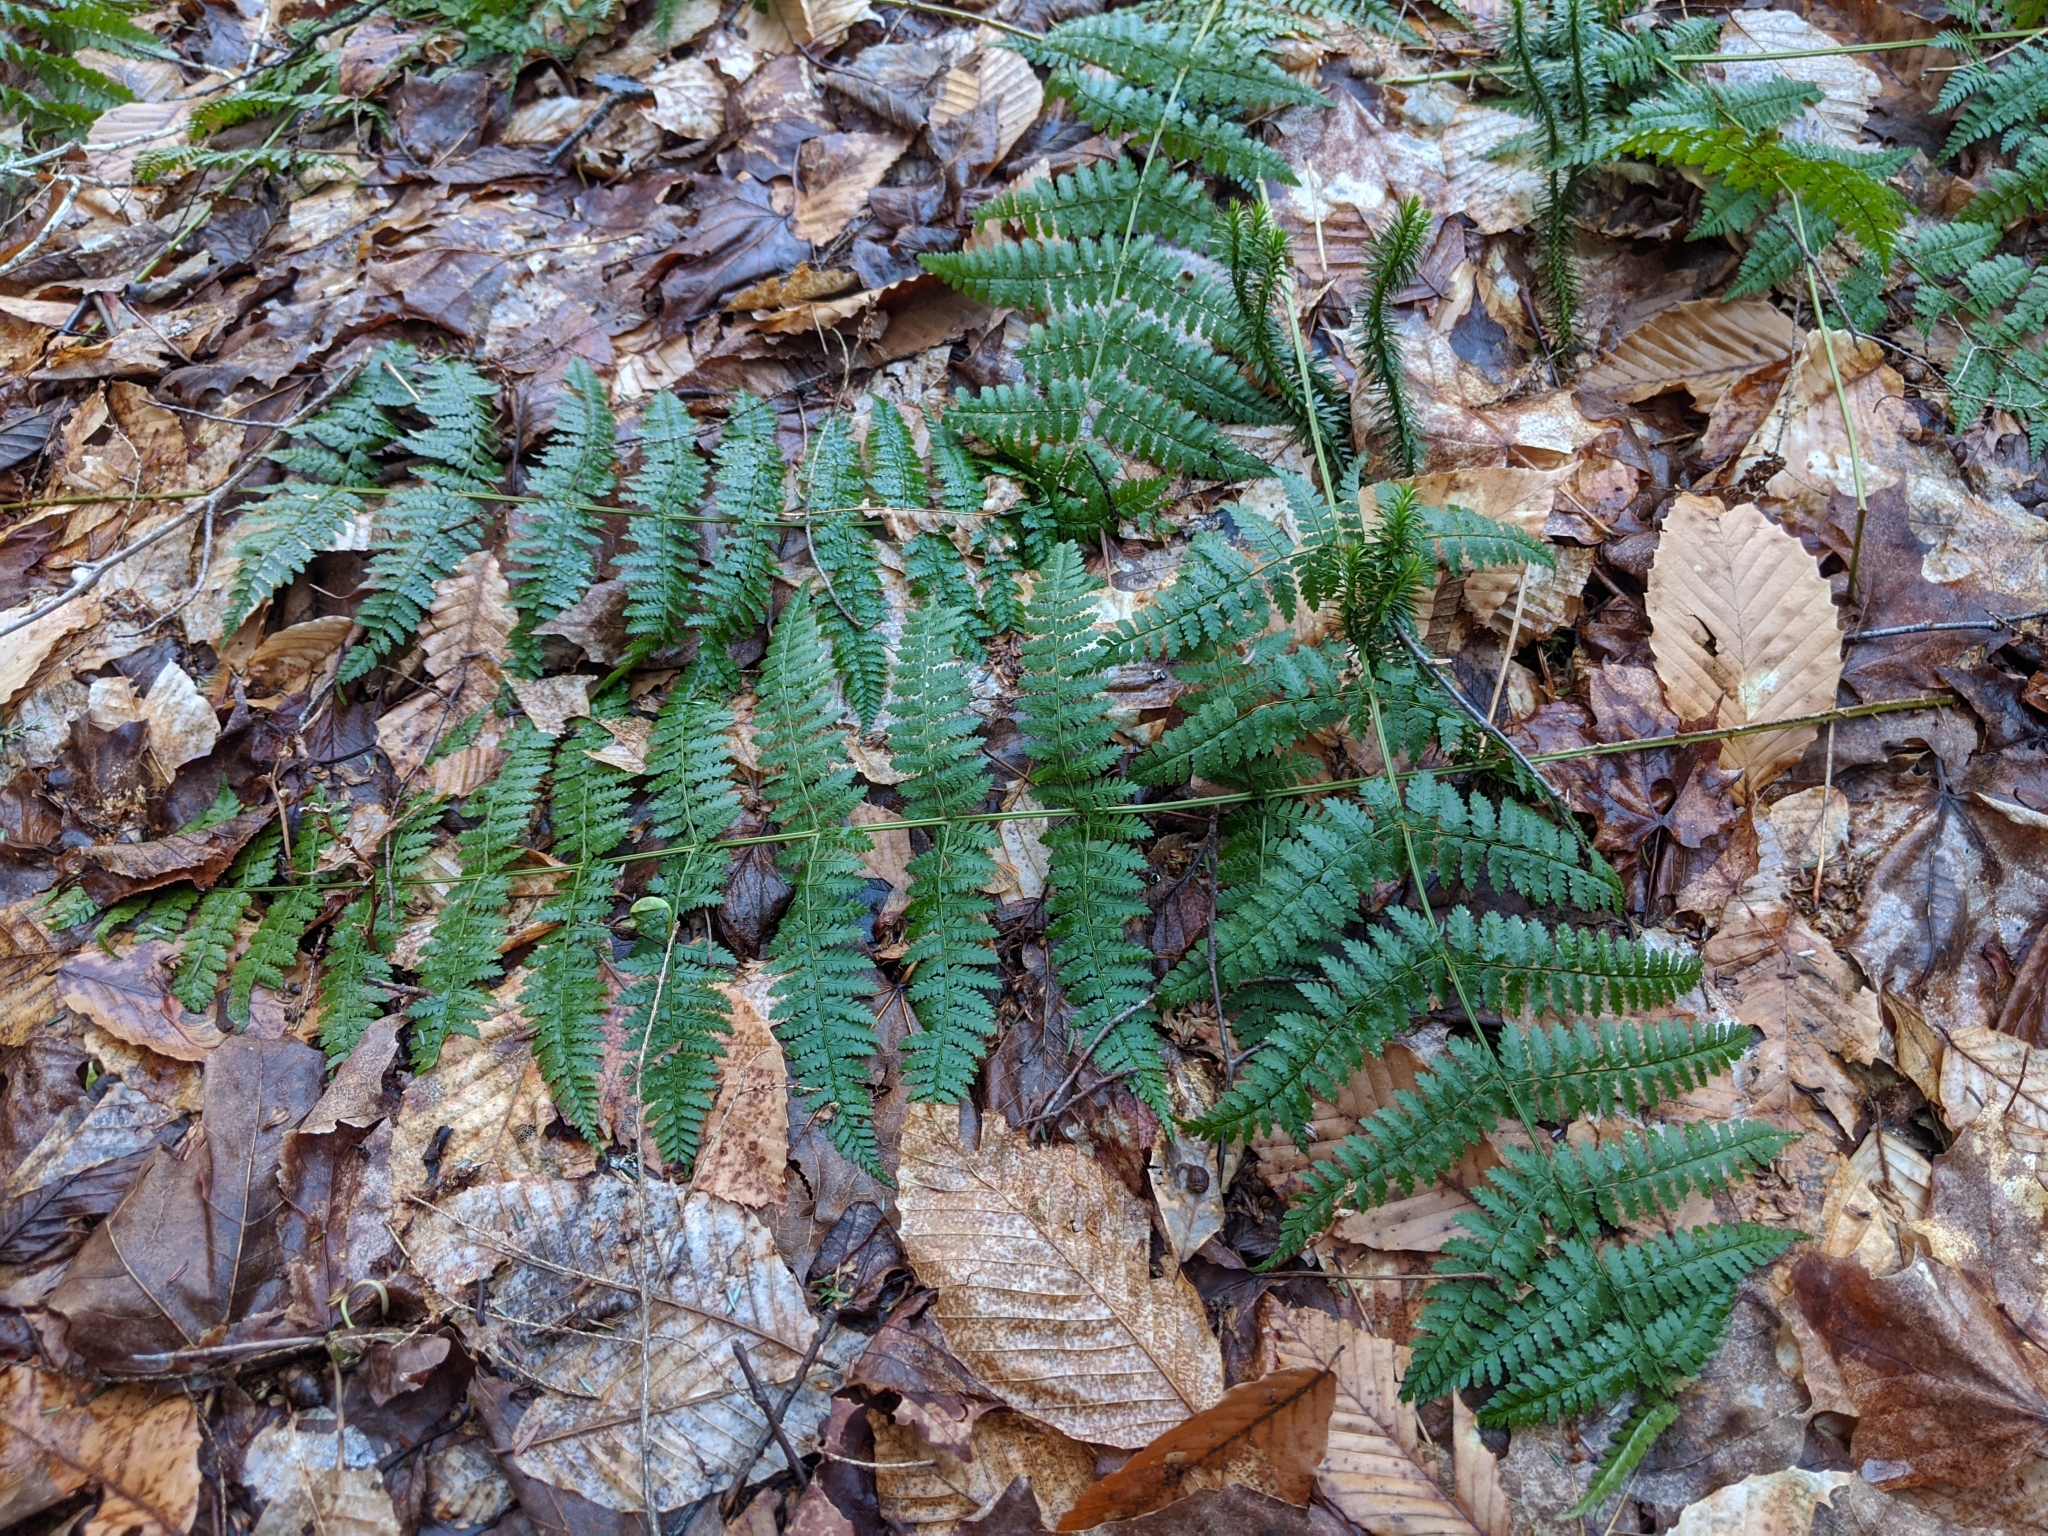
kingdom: Plantae
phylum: Tracheophyta
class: Polypodiopsida
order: Polypodiales
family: Dryopteridaceae
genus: Dryopteris
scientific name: Dryopteris intermedia
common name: Evergreen wood fern
